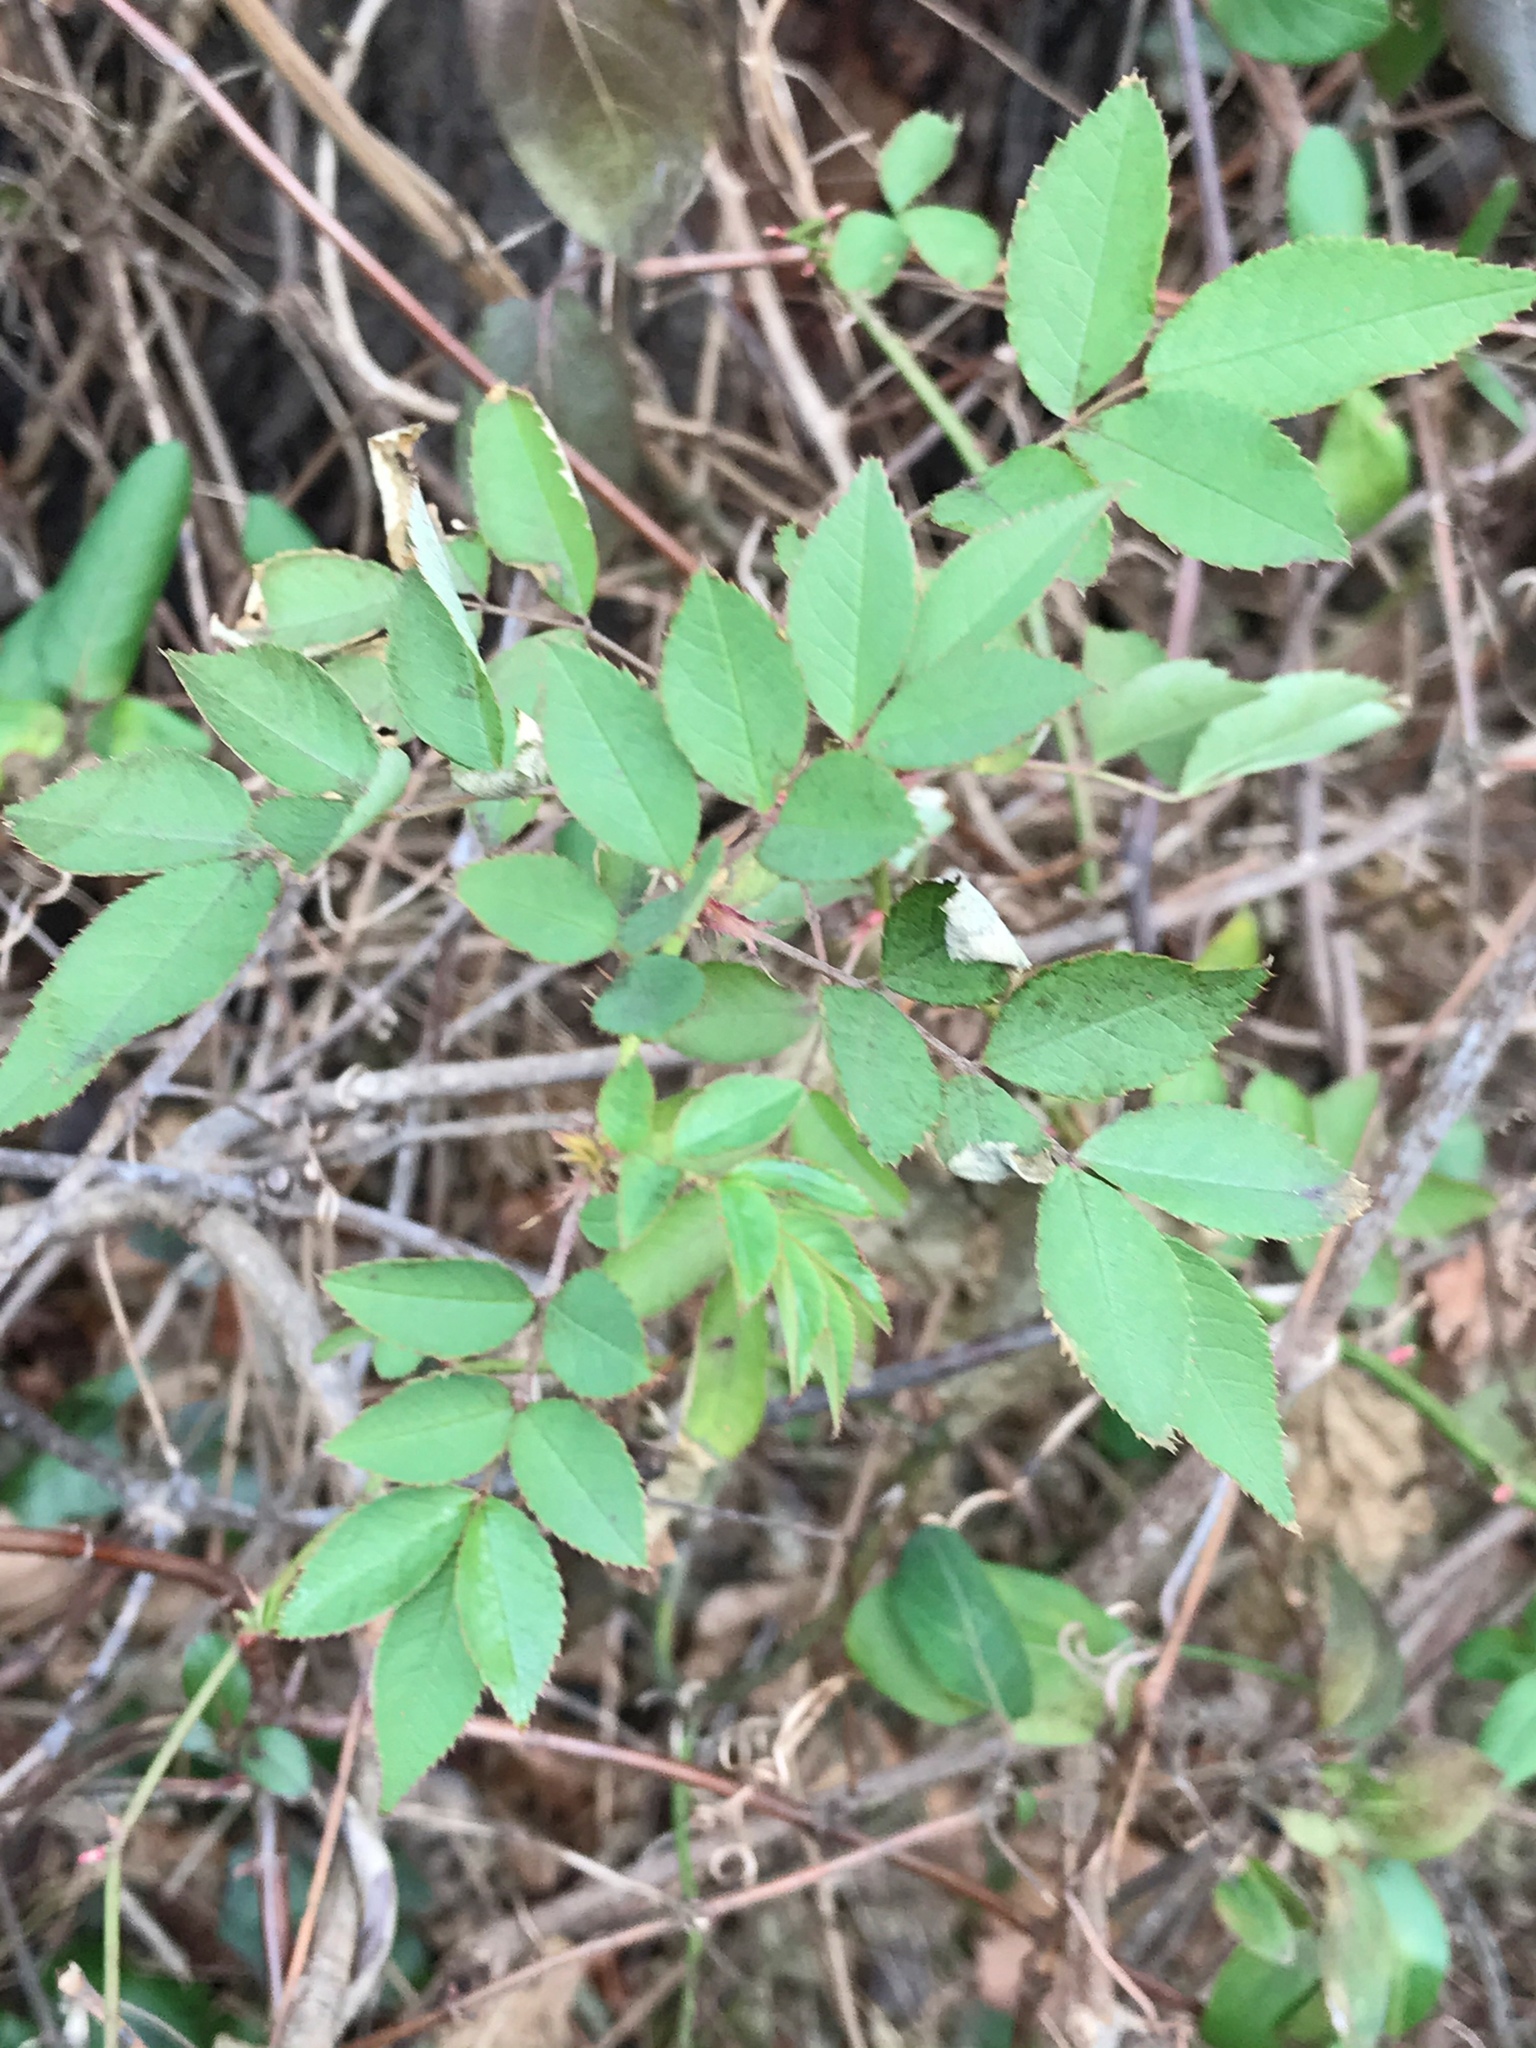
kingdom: Plantae
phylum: Tracheophyta
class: Magnoliopsida
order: Rosales
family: Rosaceae
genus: Rosa
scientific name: Rosa multiflora
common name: Multiflora rose
